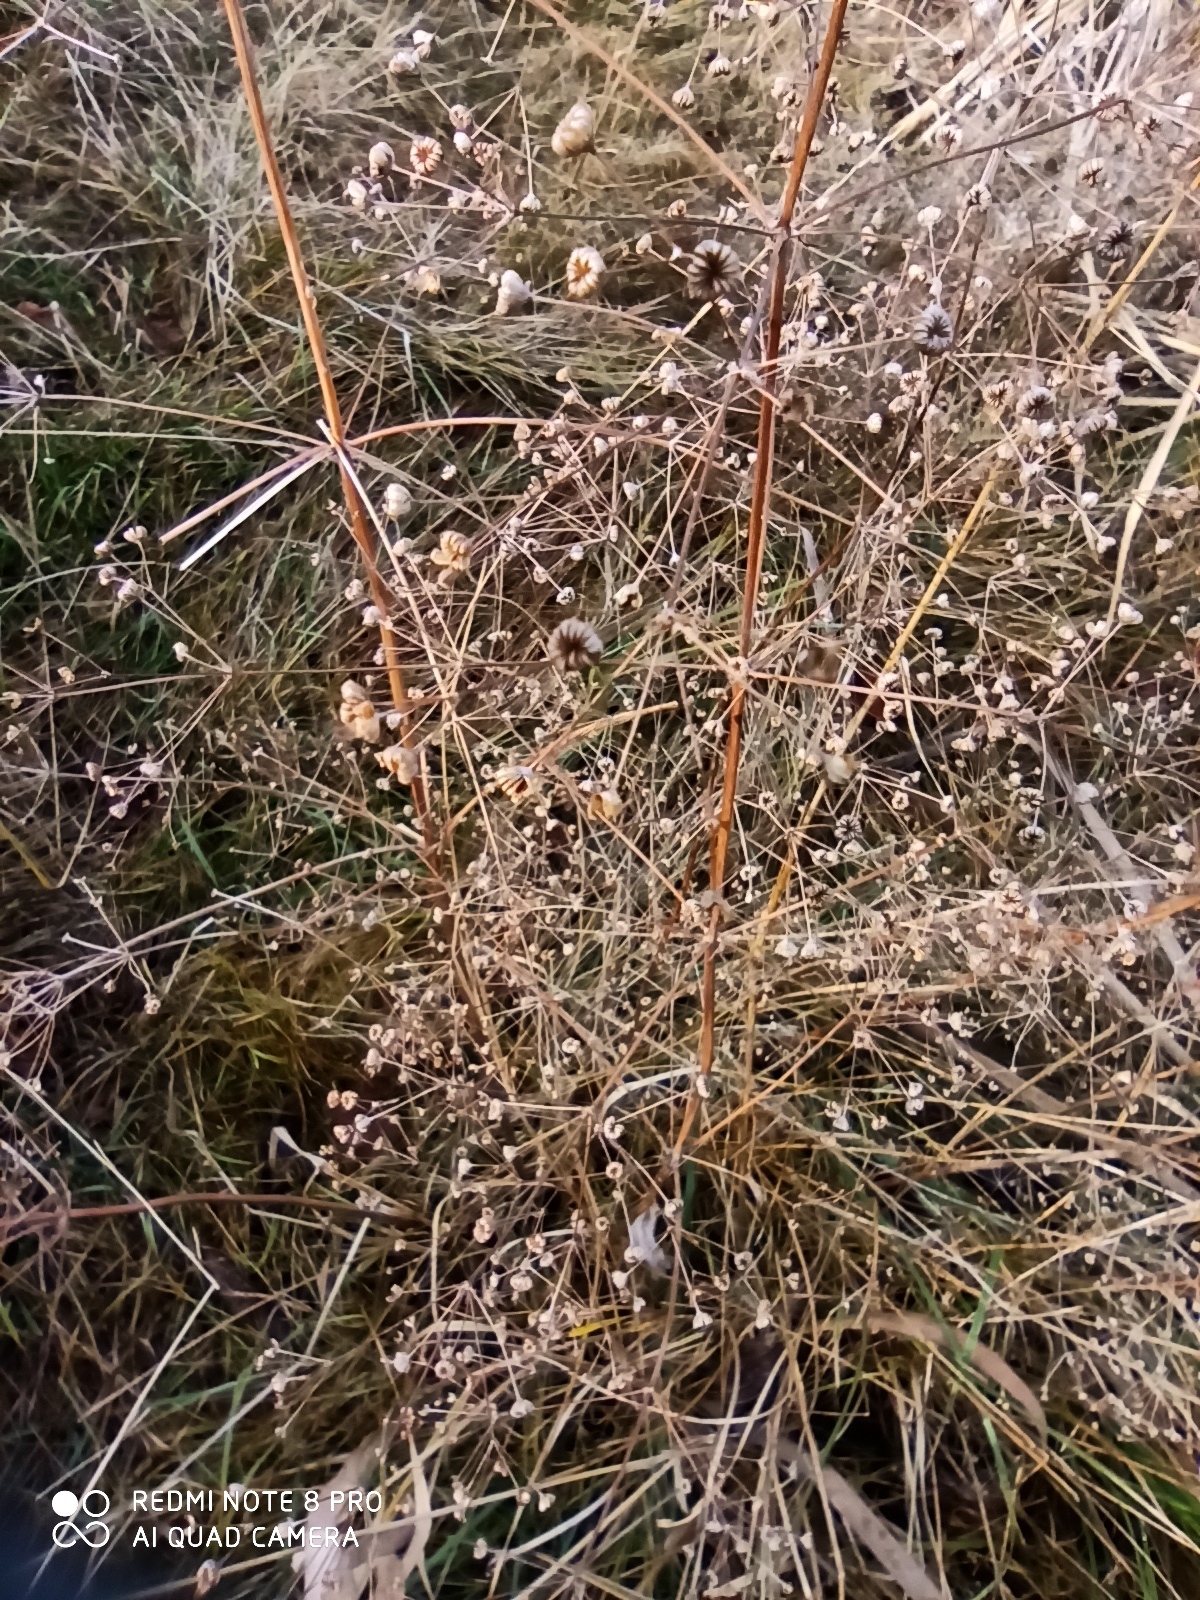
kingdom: Plantae
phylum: Tracheophyta
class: Liliopsida
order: Alismatales
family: Alismataceae
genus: Alisma
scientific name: Alisma plantago-aquatica
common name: Water-plantain
